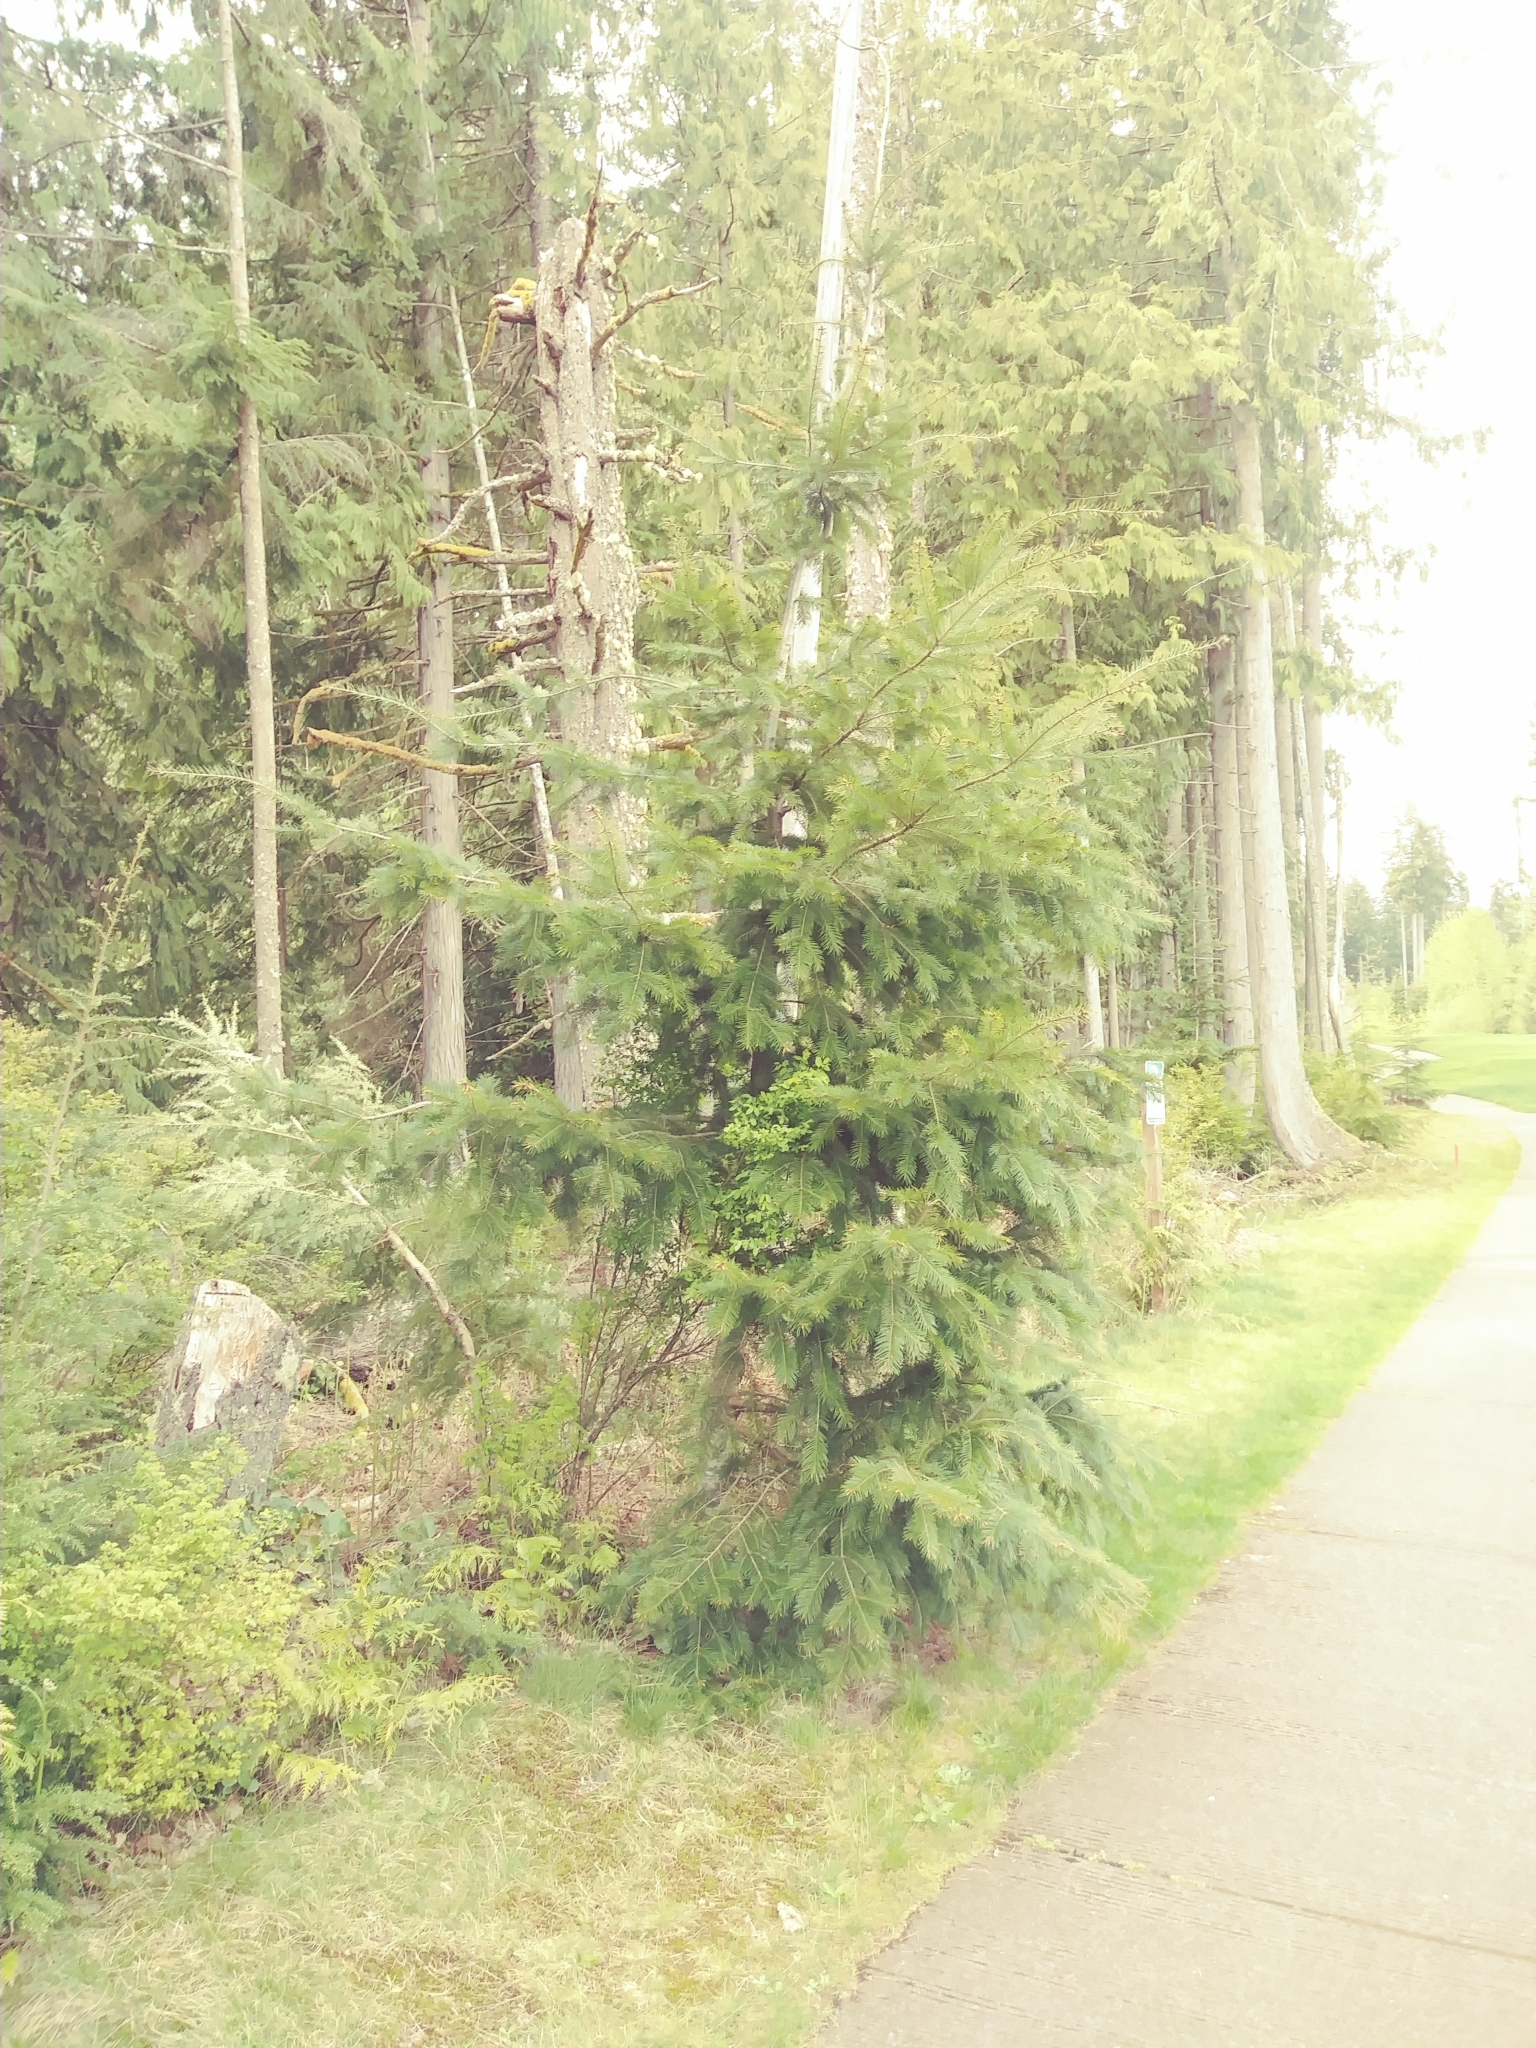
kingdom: Plantae
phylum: Tracheophyta
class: Pinopsida
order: Pinales
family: Pinaceae
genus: Pseudotsuga
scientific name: Pseudotsuga menziesii
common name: Douglas fir
